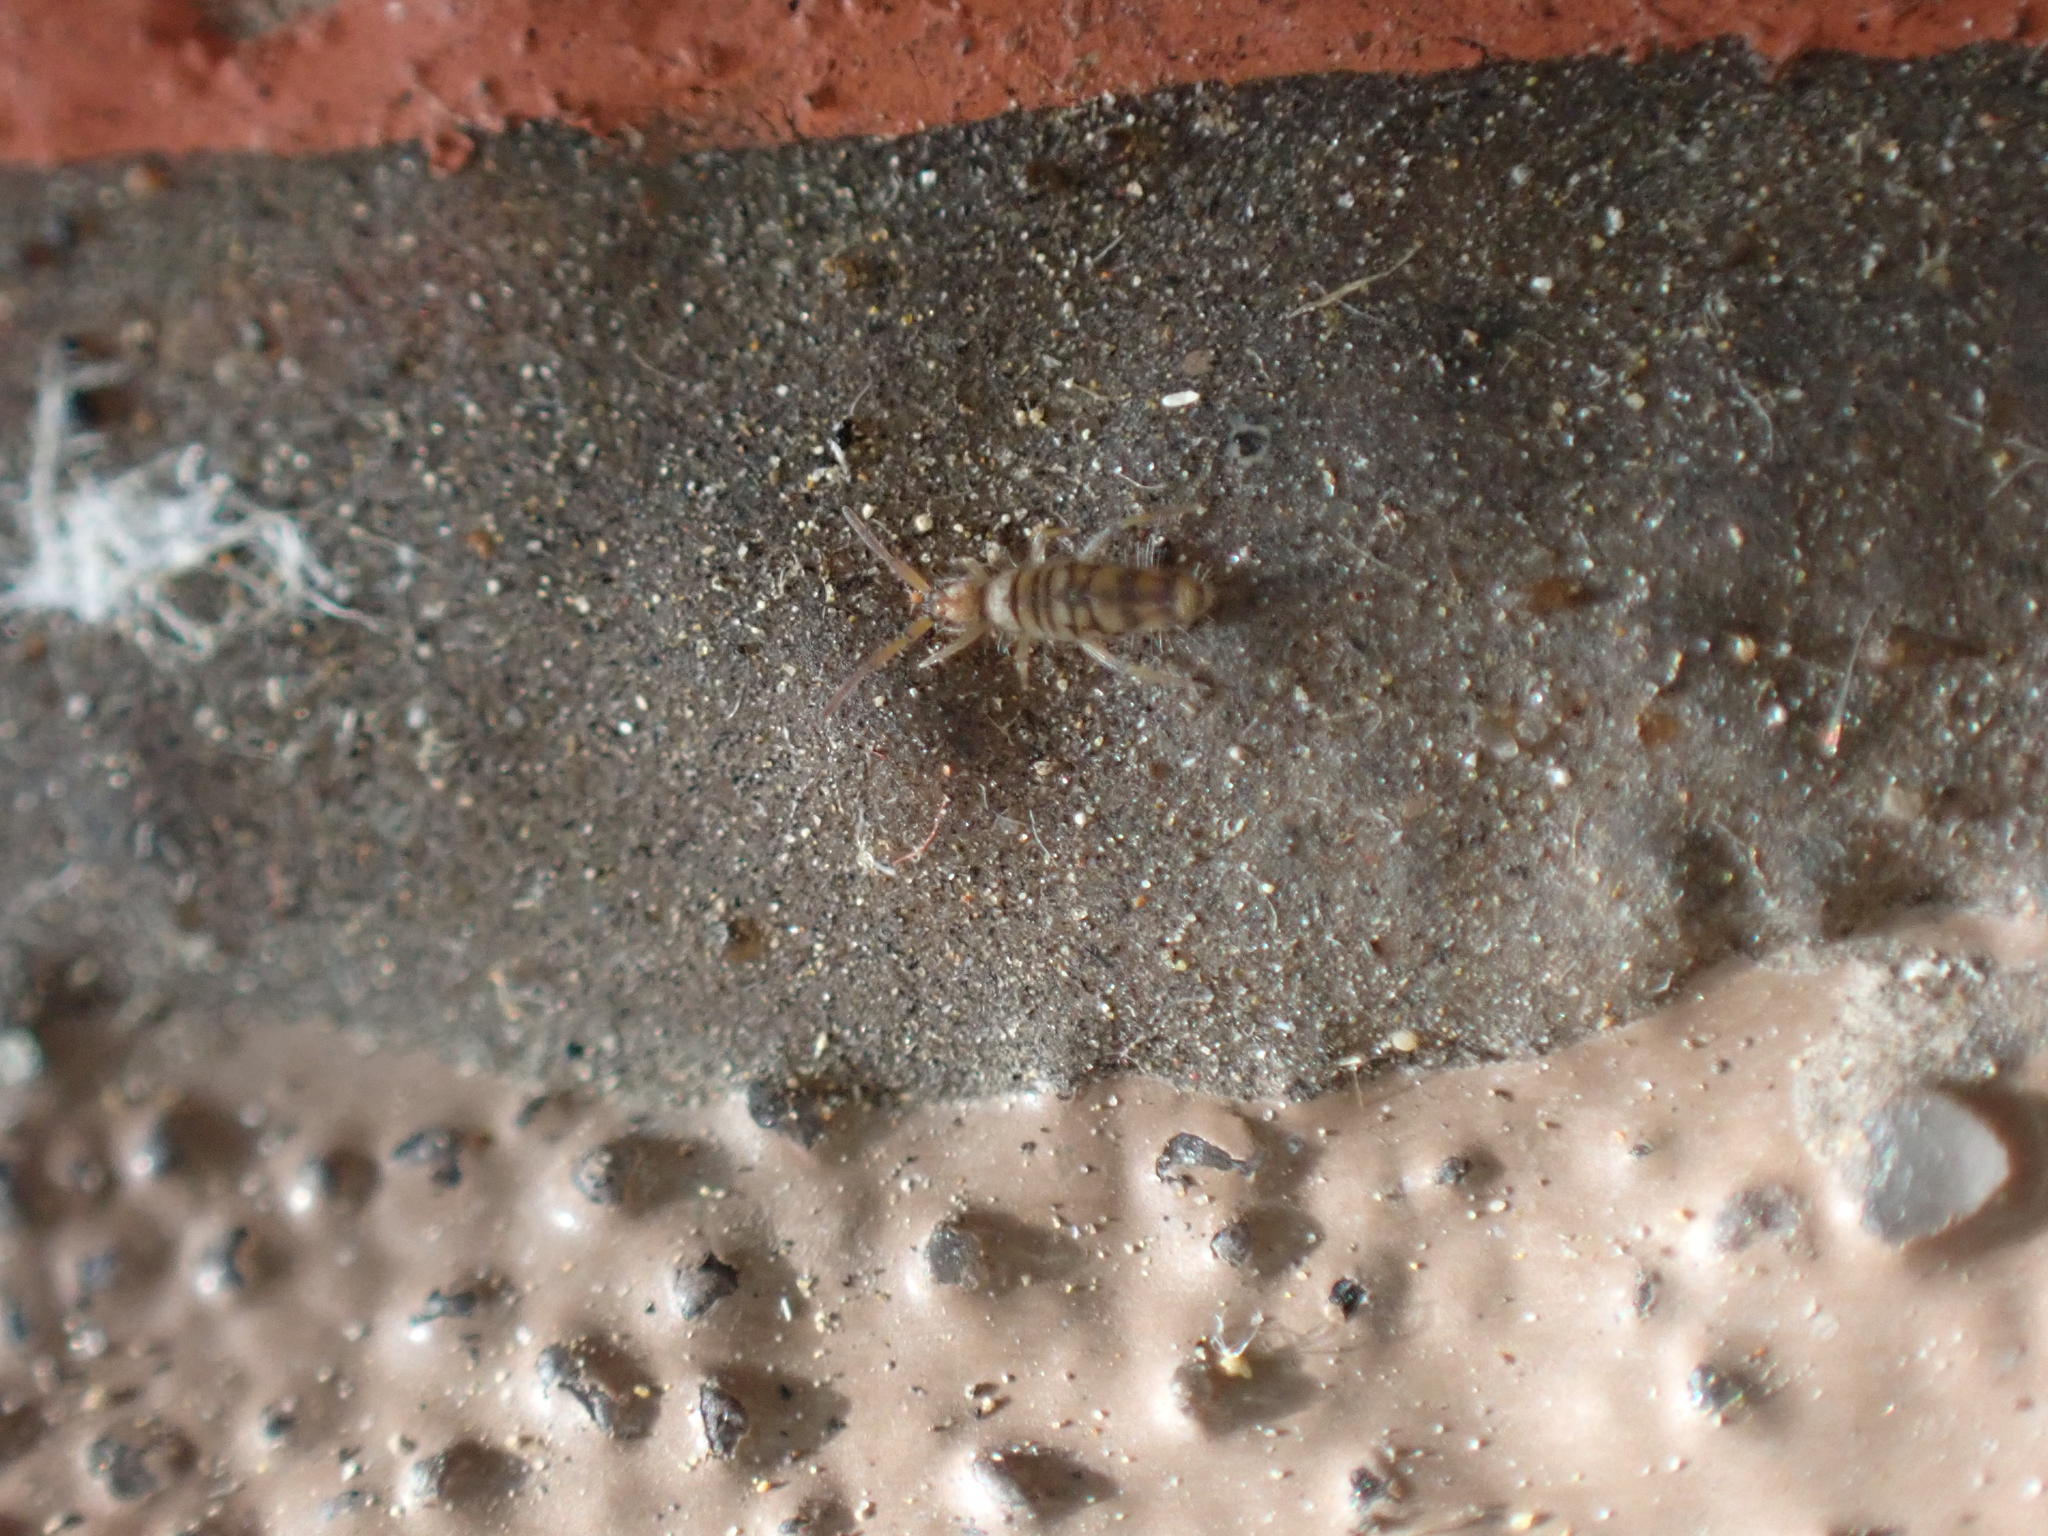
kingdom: Animalia
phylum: Arthropoda
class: Collembola
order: Entomobryomorpha
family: Entomobryidae
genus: Entomobrya
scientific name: Entomobrya atrocincta
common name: Springtail
